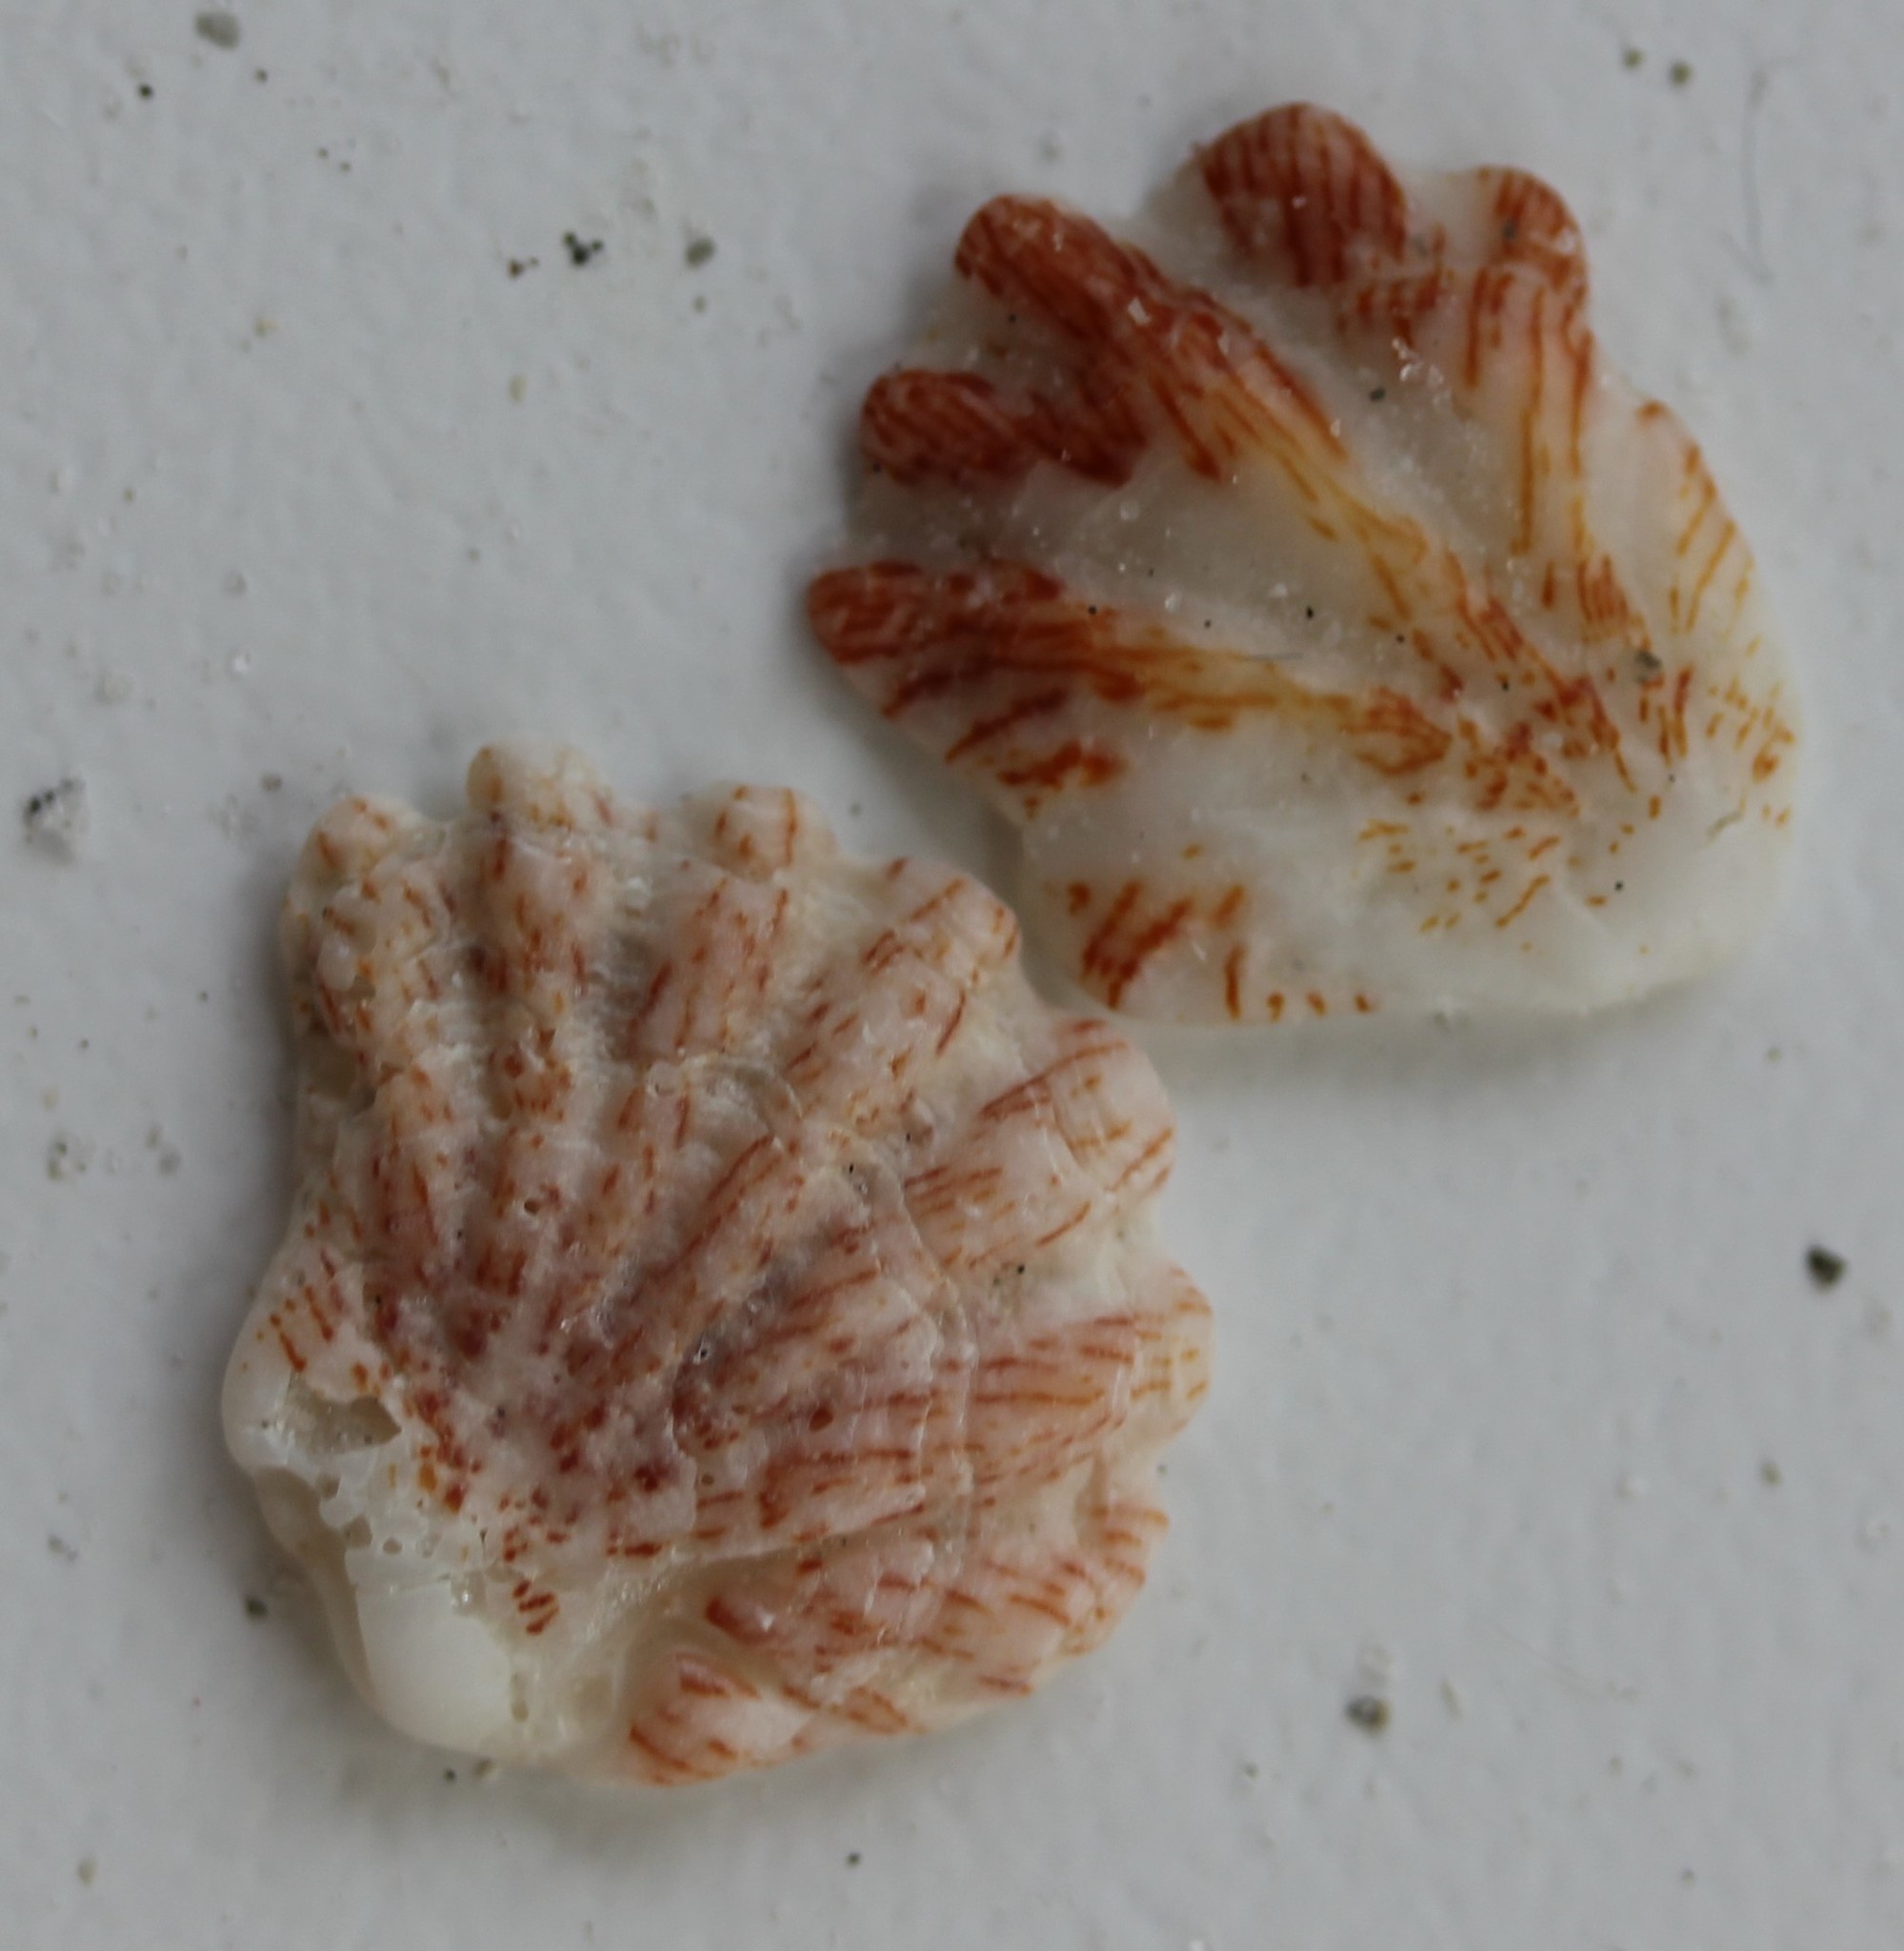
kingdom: Animalia
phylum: Mollusca
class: Bivalvia
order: Pectinida
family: Plicatulidae
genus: Plicatula
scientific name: Plicatula gibbosa
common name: Atlantic kitten's paw
